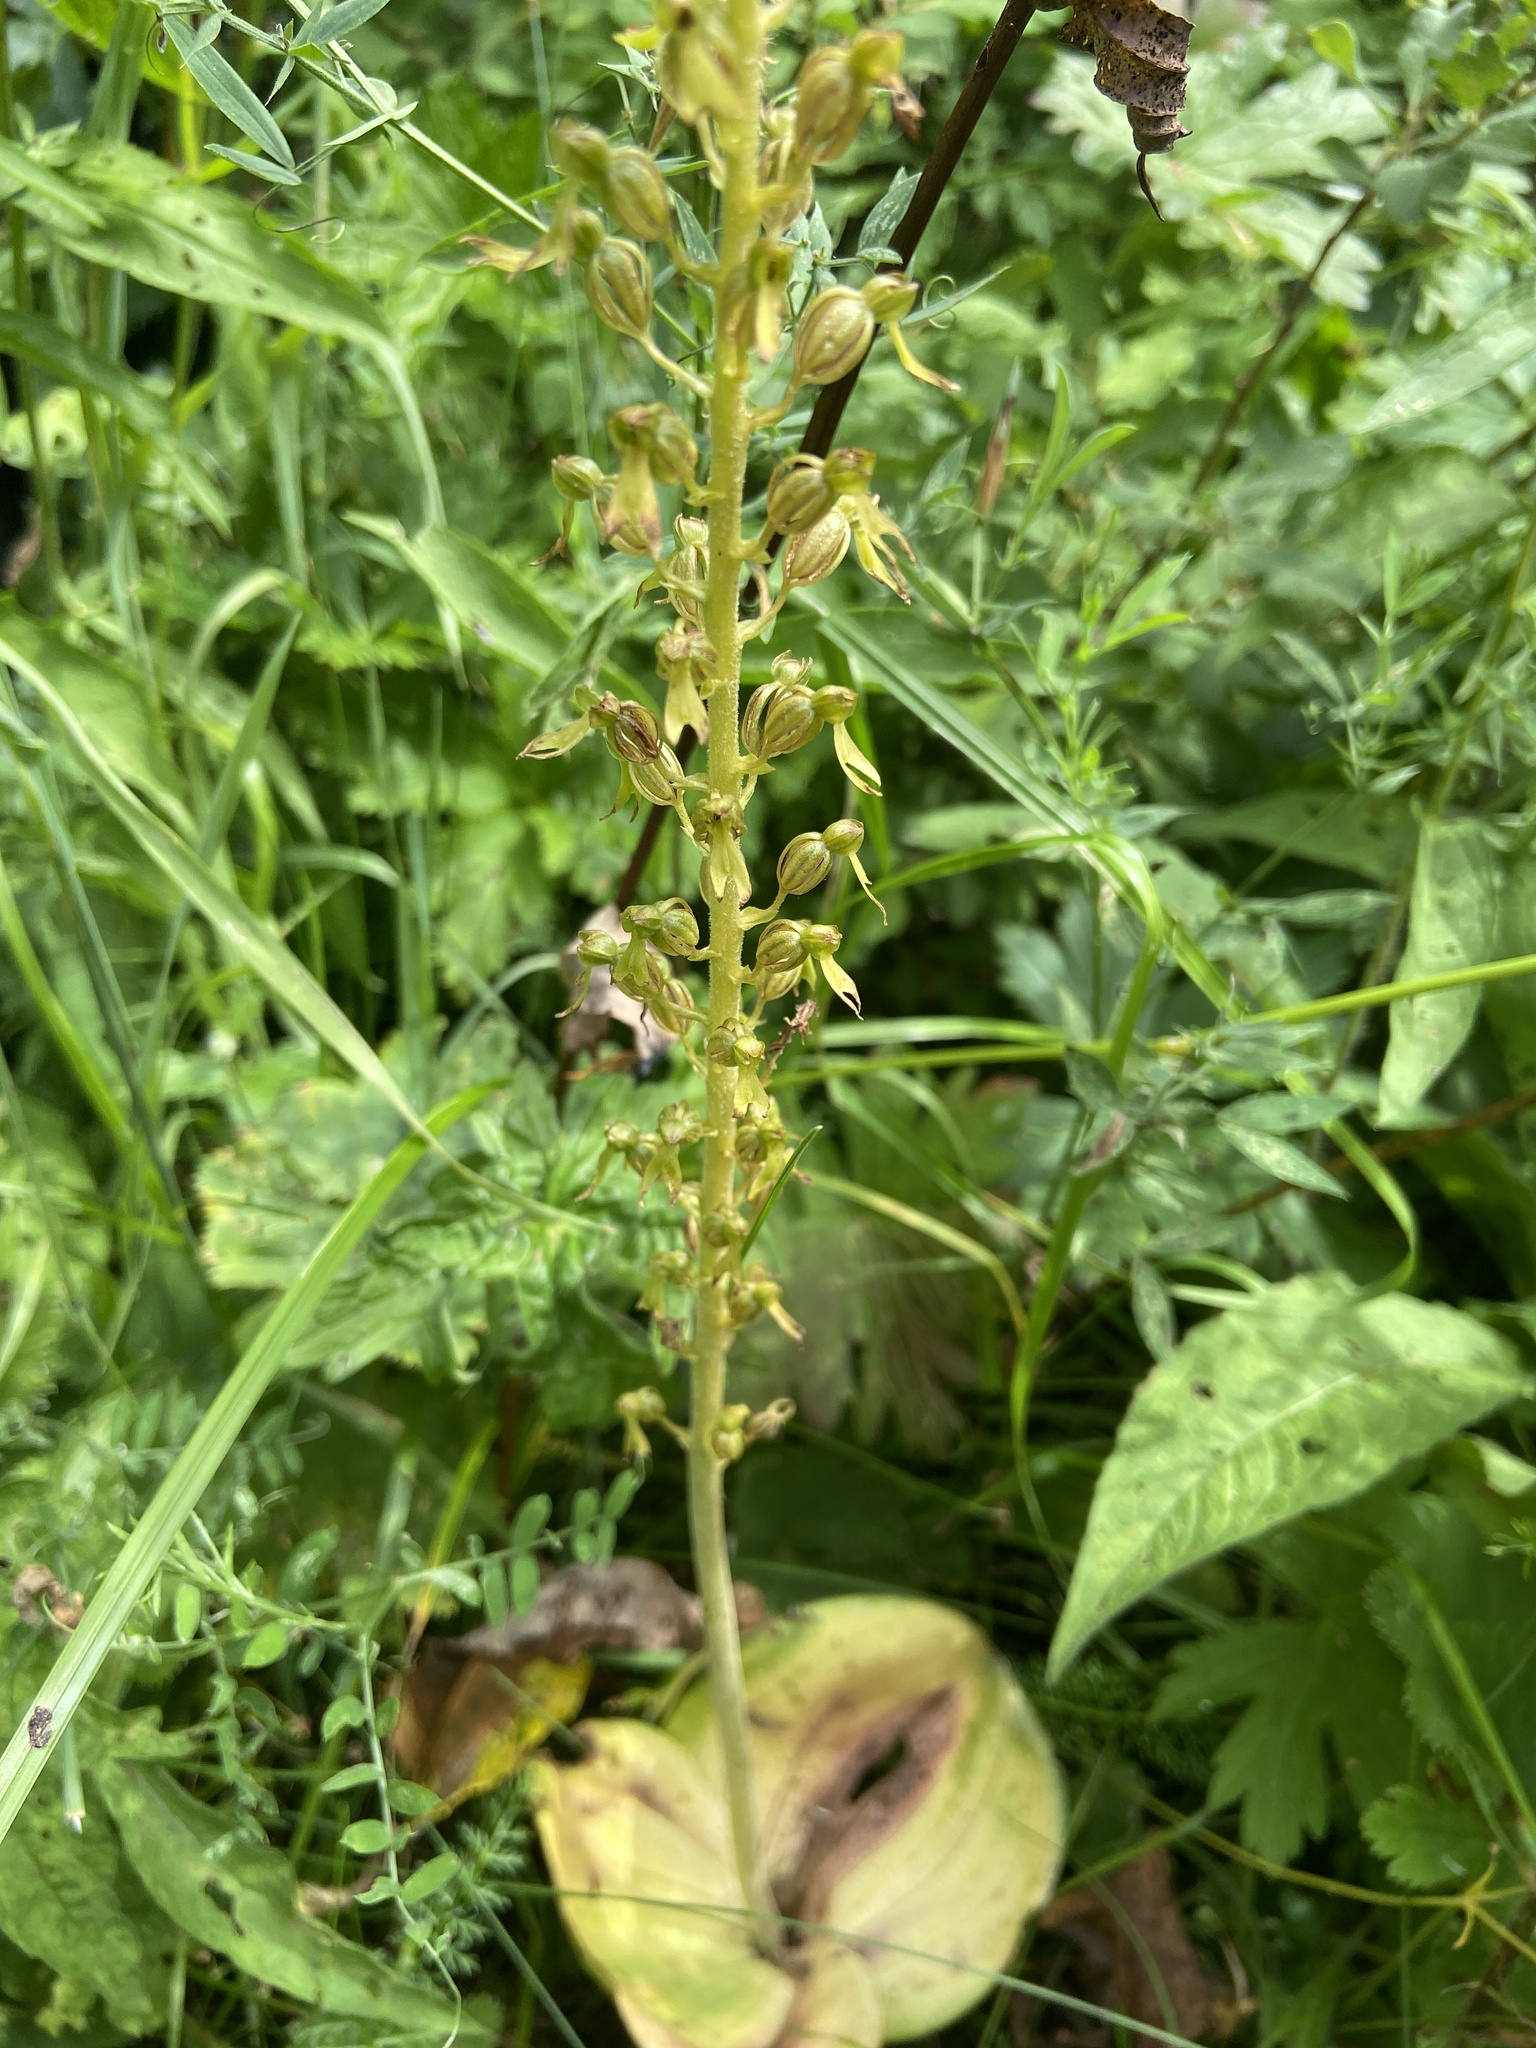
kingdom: Plantae
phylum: Tracheophyta
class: Liliopsida
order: Asparagales
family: Orchidaceae
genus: Neottia
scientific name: Neottia ovata
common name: Common twayblade
